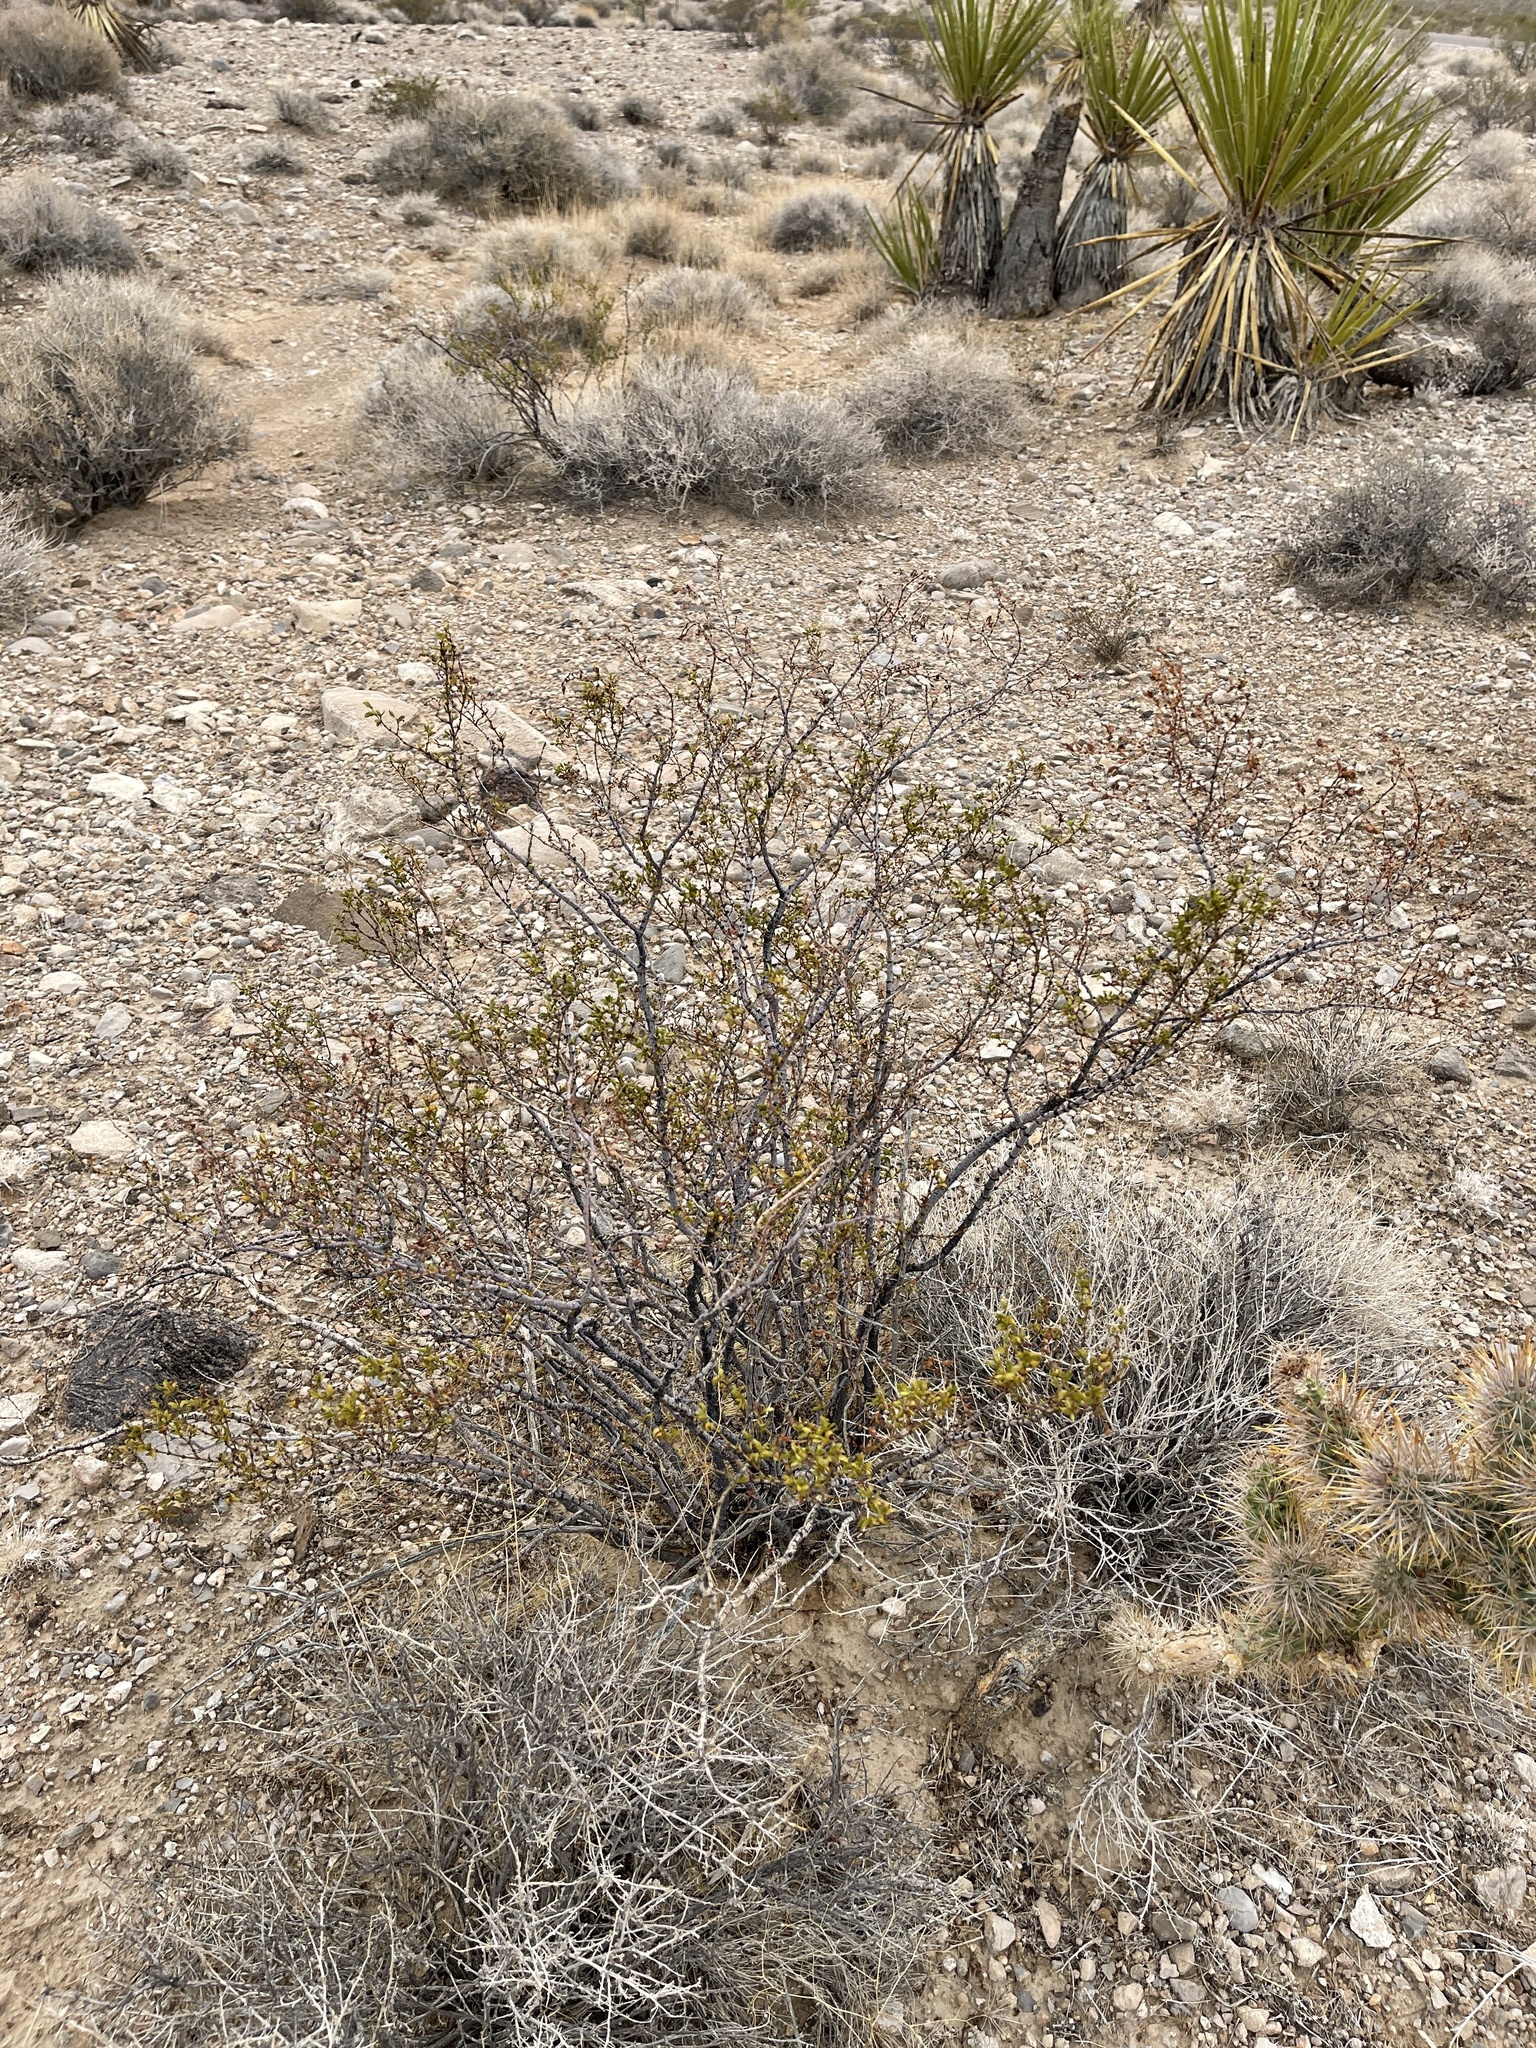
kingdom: Plantae
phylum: Tracheophyta
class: Magnoliopsida
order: Zygophyllales
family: Zygophyllaceae
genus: Larrea
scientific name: Larrea tridentata
